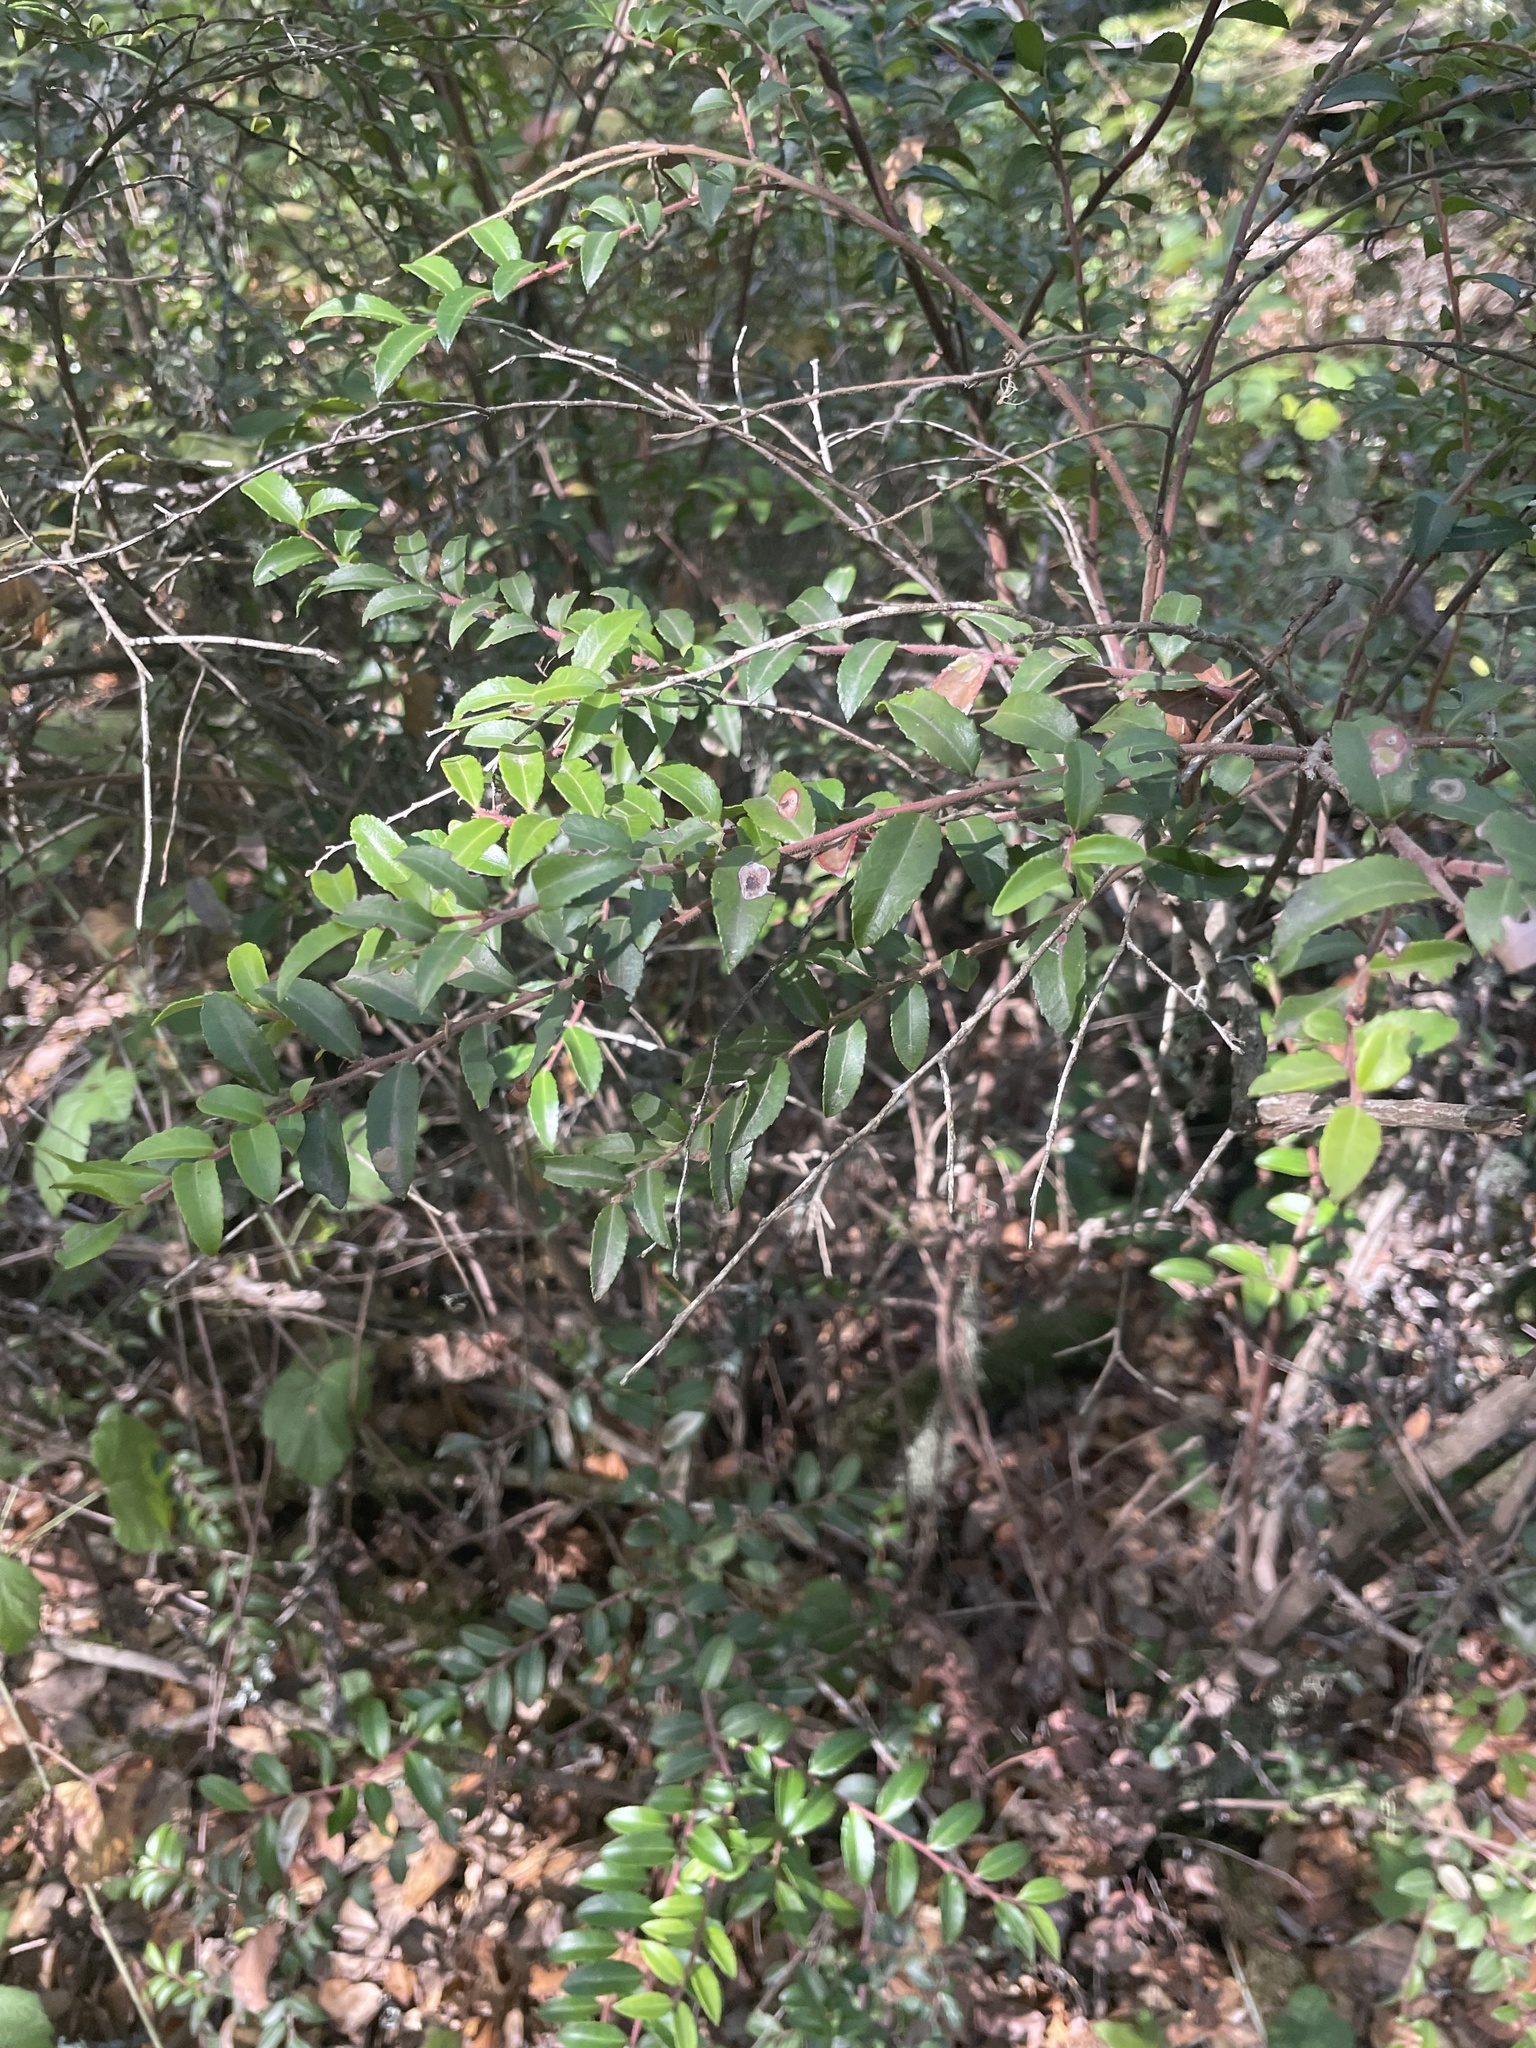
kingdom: Plantae
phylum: Tracheophyta
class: Magnoliopsida
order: Ericales
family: Ericaceae
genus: Vaccinium
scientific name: Vaccinium ovatum
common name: California-huckleberry
